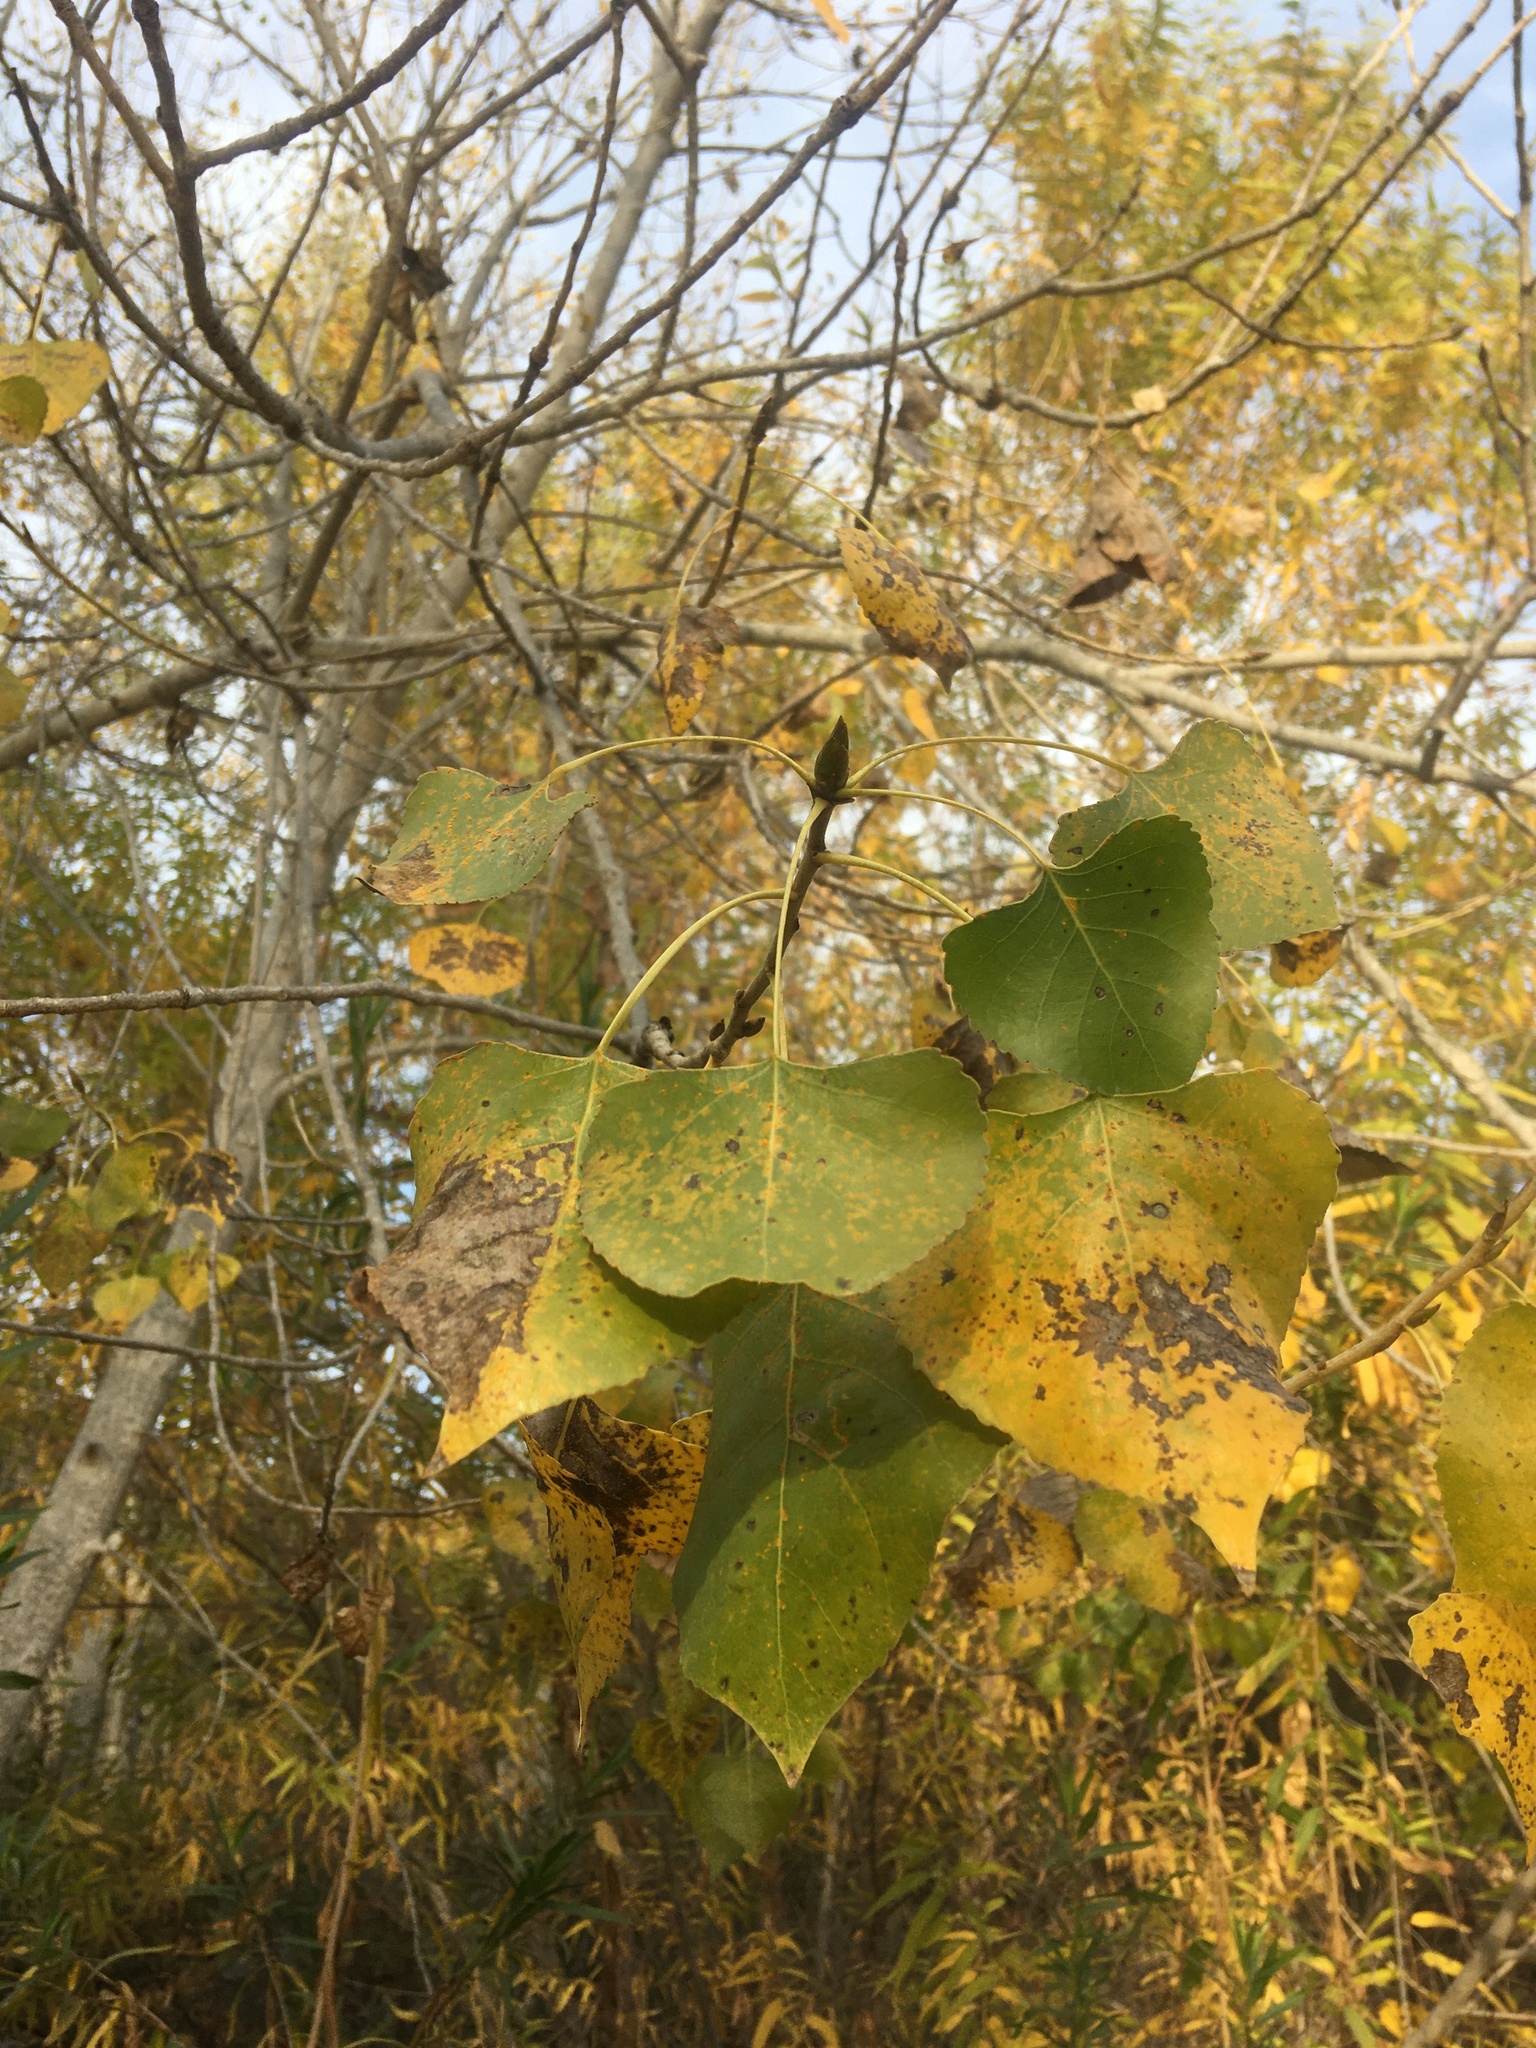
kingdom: Plantae
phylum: Tracheophyta
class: Magnoliopsida
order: Malpighiales
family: Salicaceae
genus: Populus
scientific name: Populus fremontii
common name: Fremont's cottonwood
